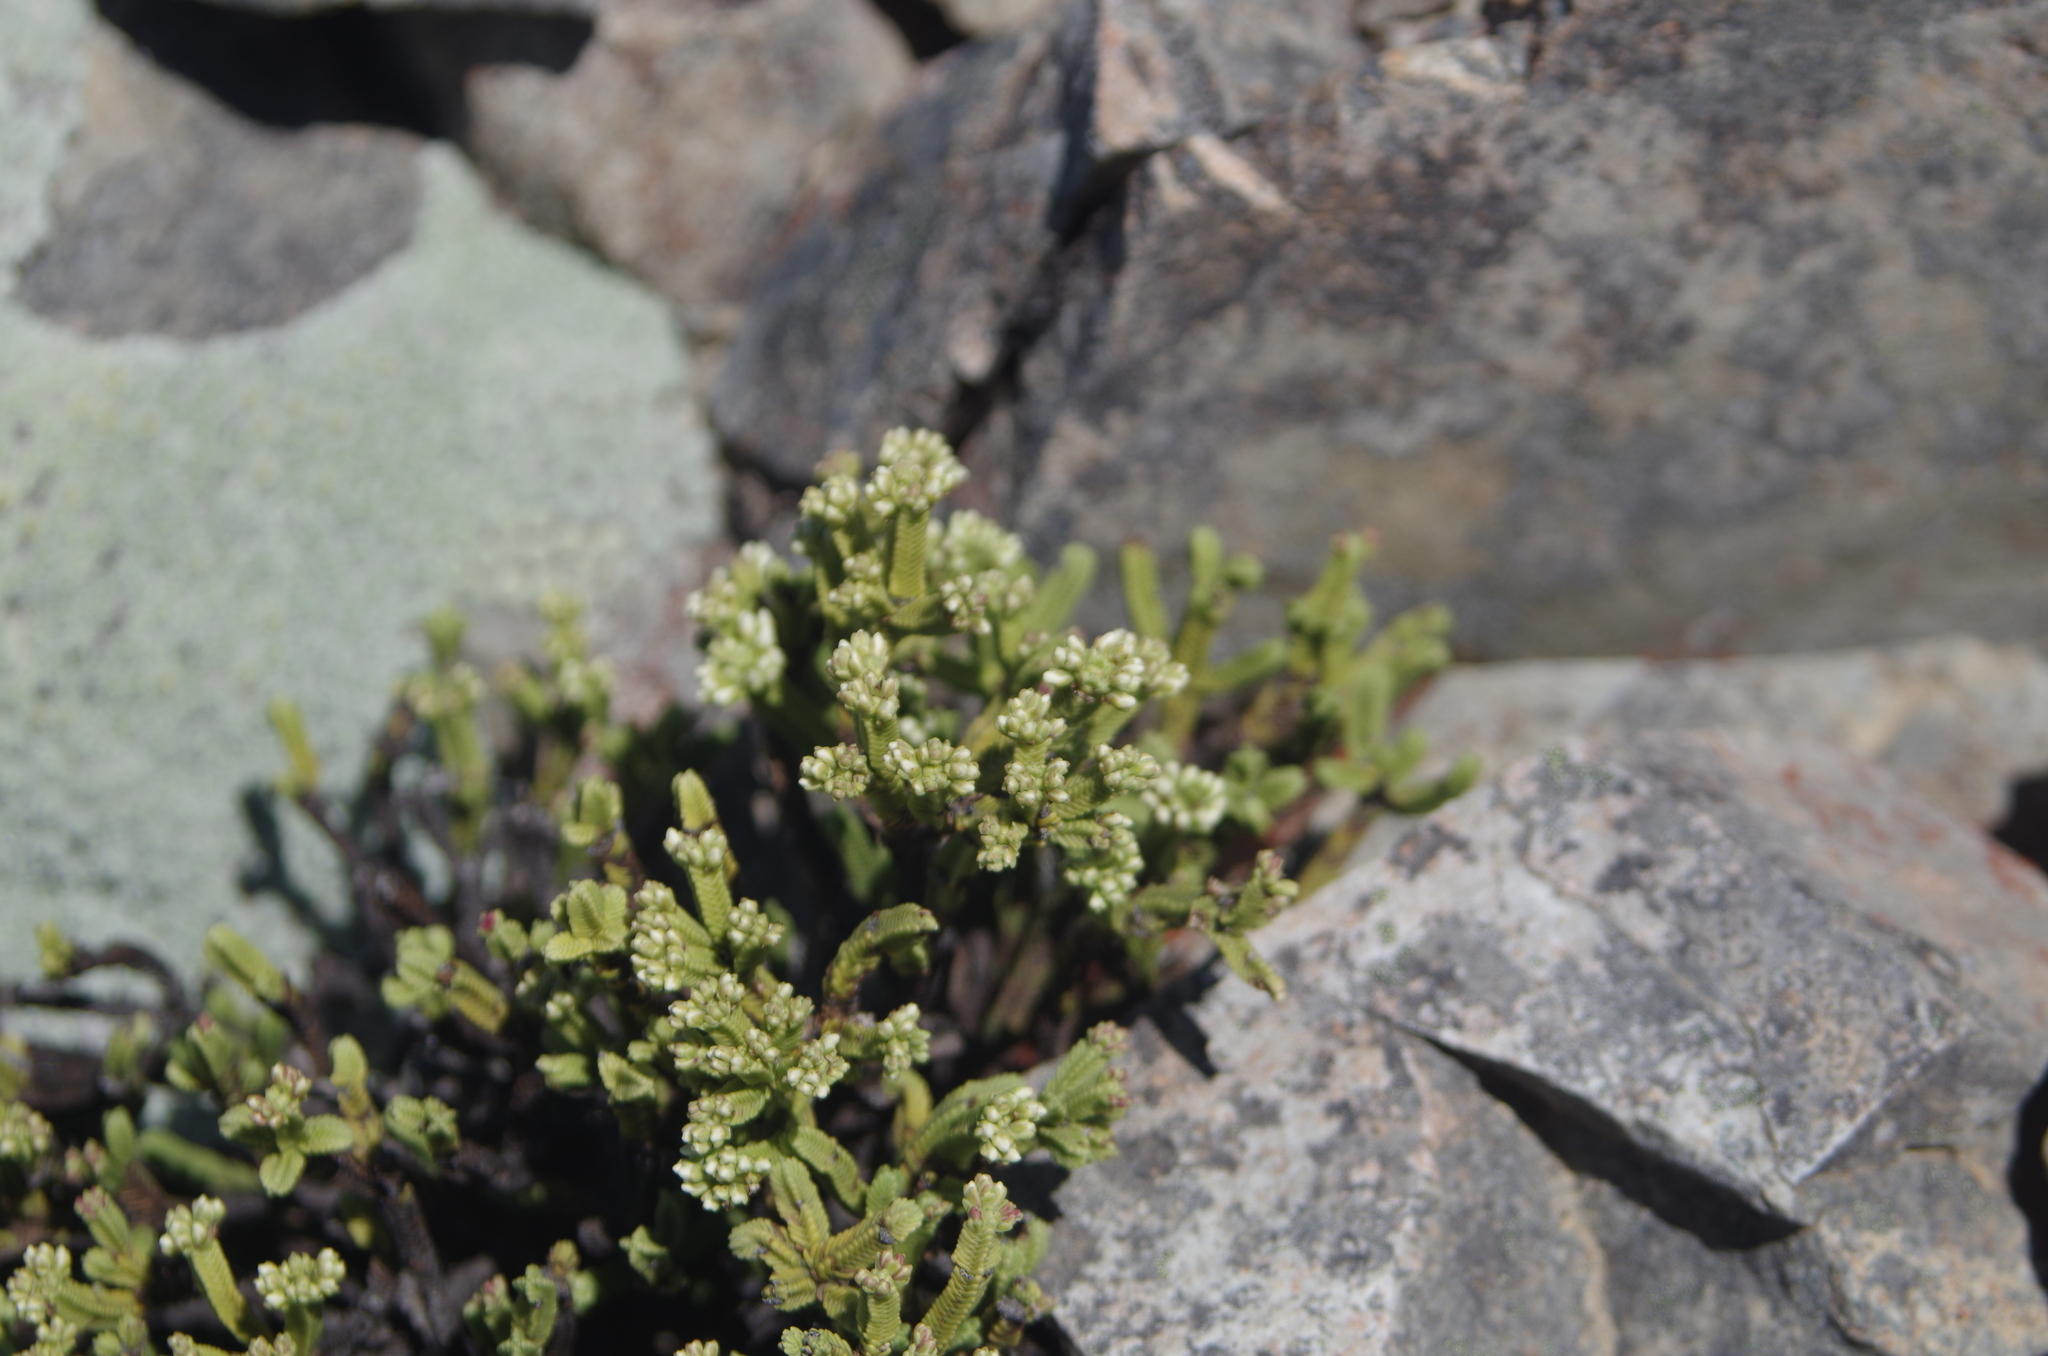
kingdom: Plantae
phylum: Tracheophyta
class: Magnoliopsida
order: Lamiales
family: Plantaginaceae
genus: Veronica
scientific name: Veronica tetrasticha
